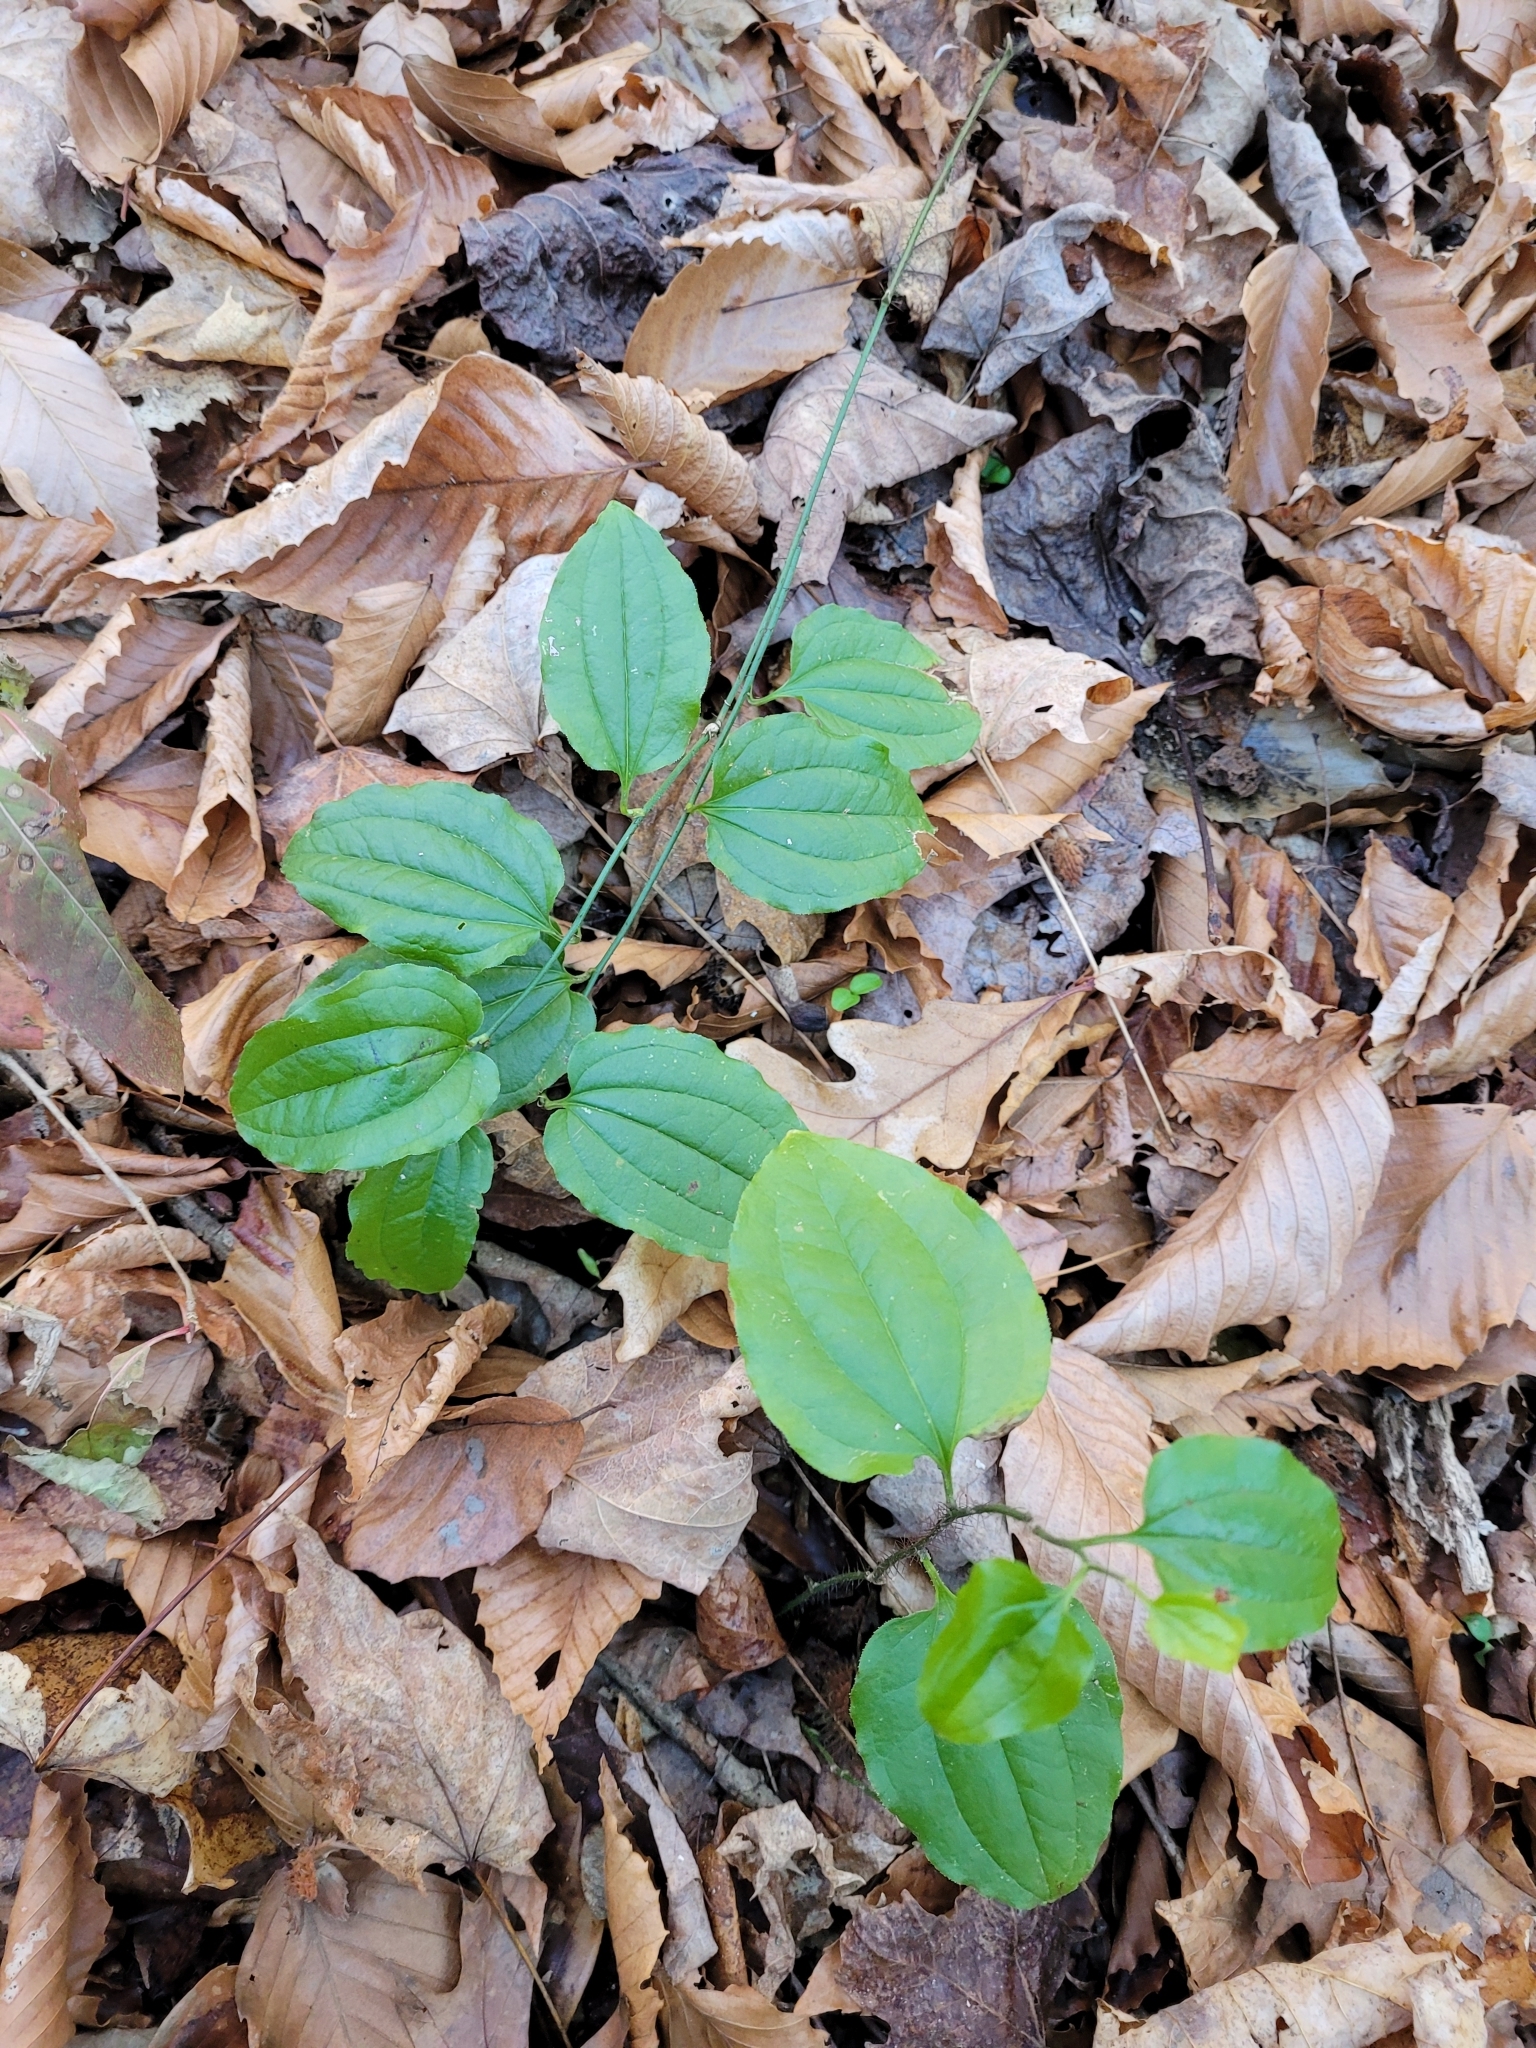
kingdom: Plantae
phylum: Tracheophyta
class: Liliopsida
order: Liliales
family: Smilacaceae
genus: Smilax
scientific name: Smilax tamnoides
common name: Hellfetter
